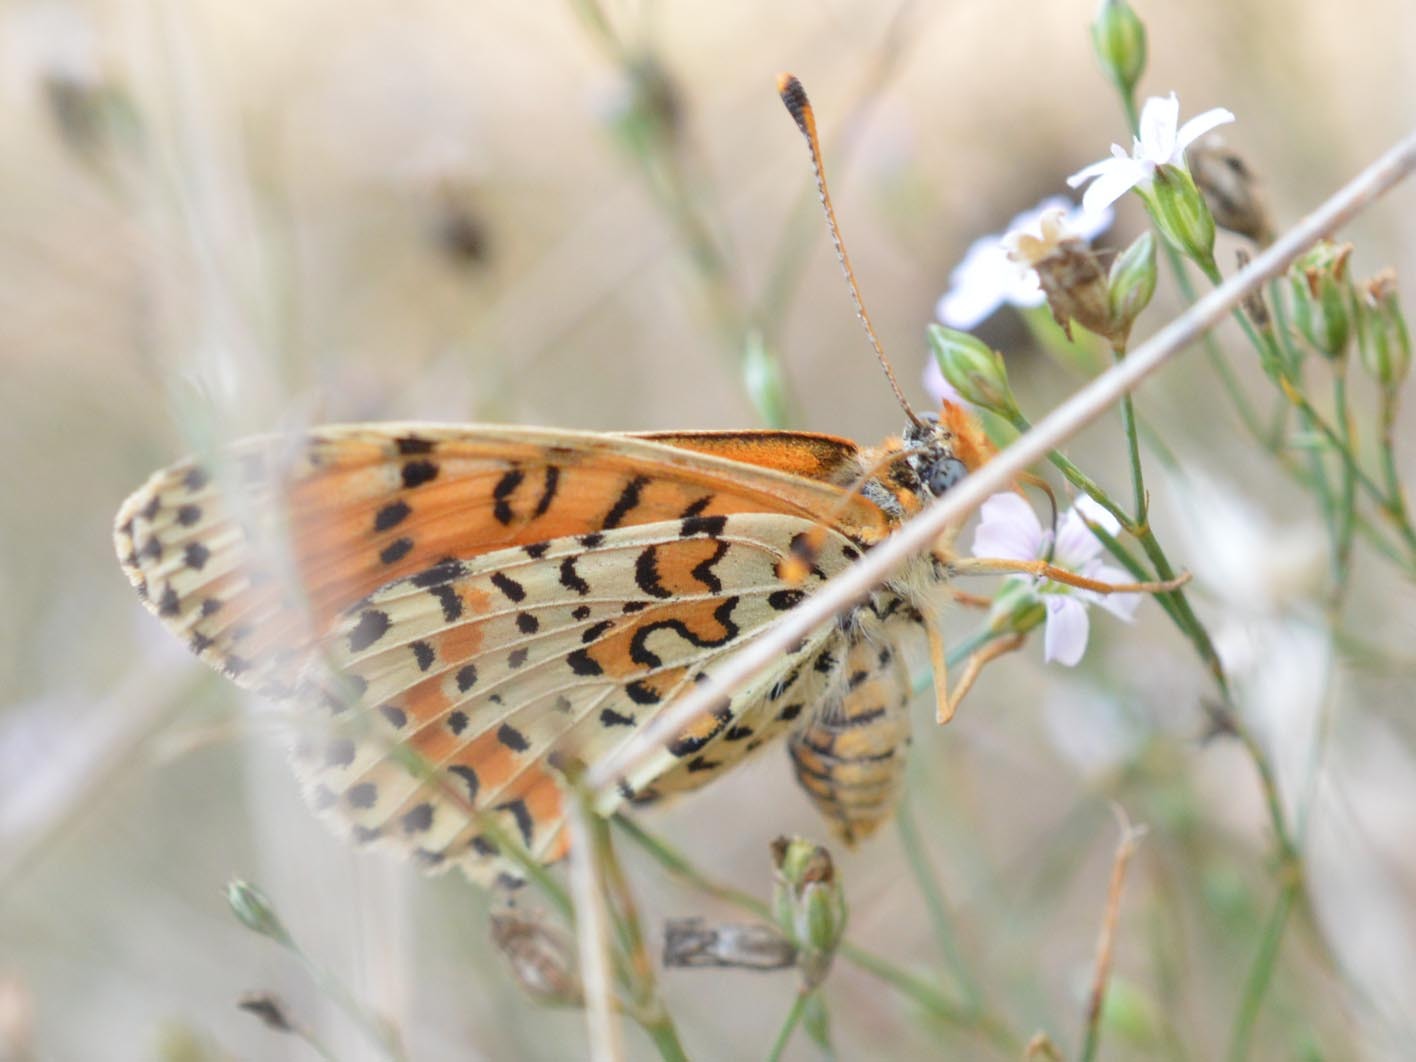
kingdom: Animalia
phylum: Arthropoda
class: Insecta
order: Lepidoptera
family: Nymphalidae
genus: Melitaea
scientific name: Melitaea didyma
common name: Spotted fritillary
